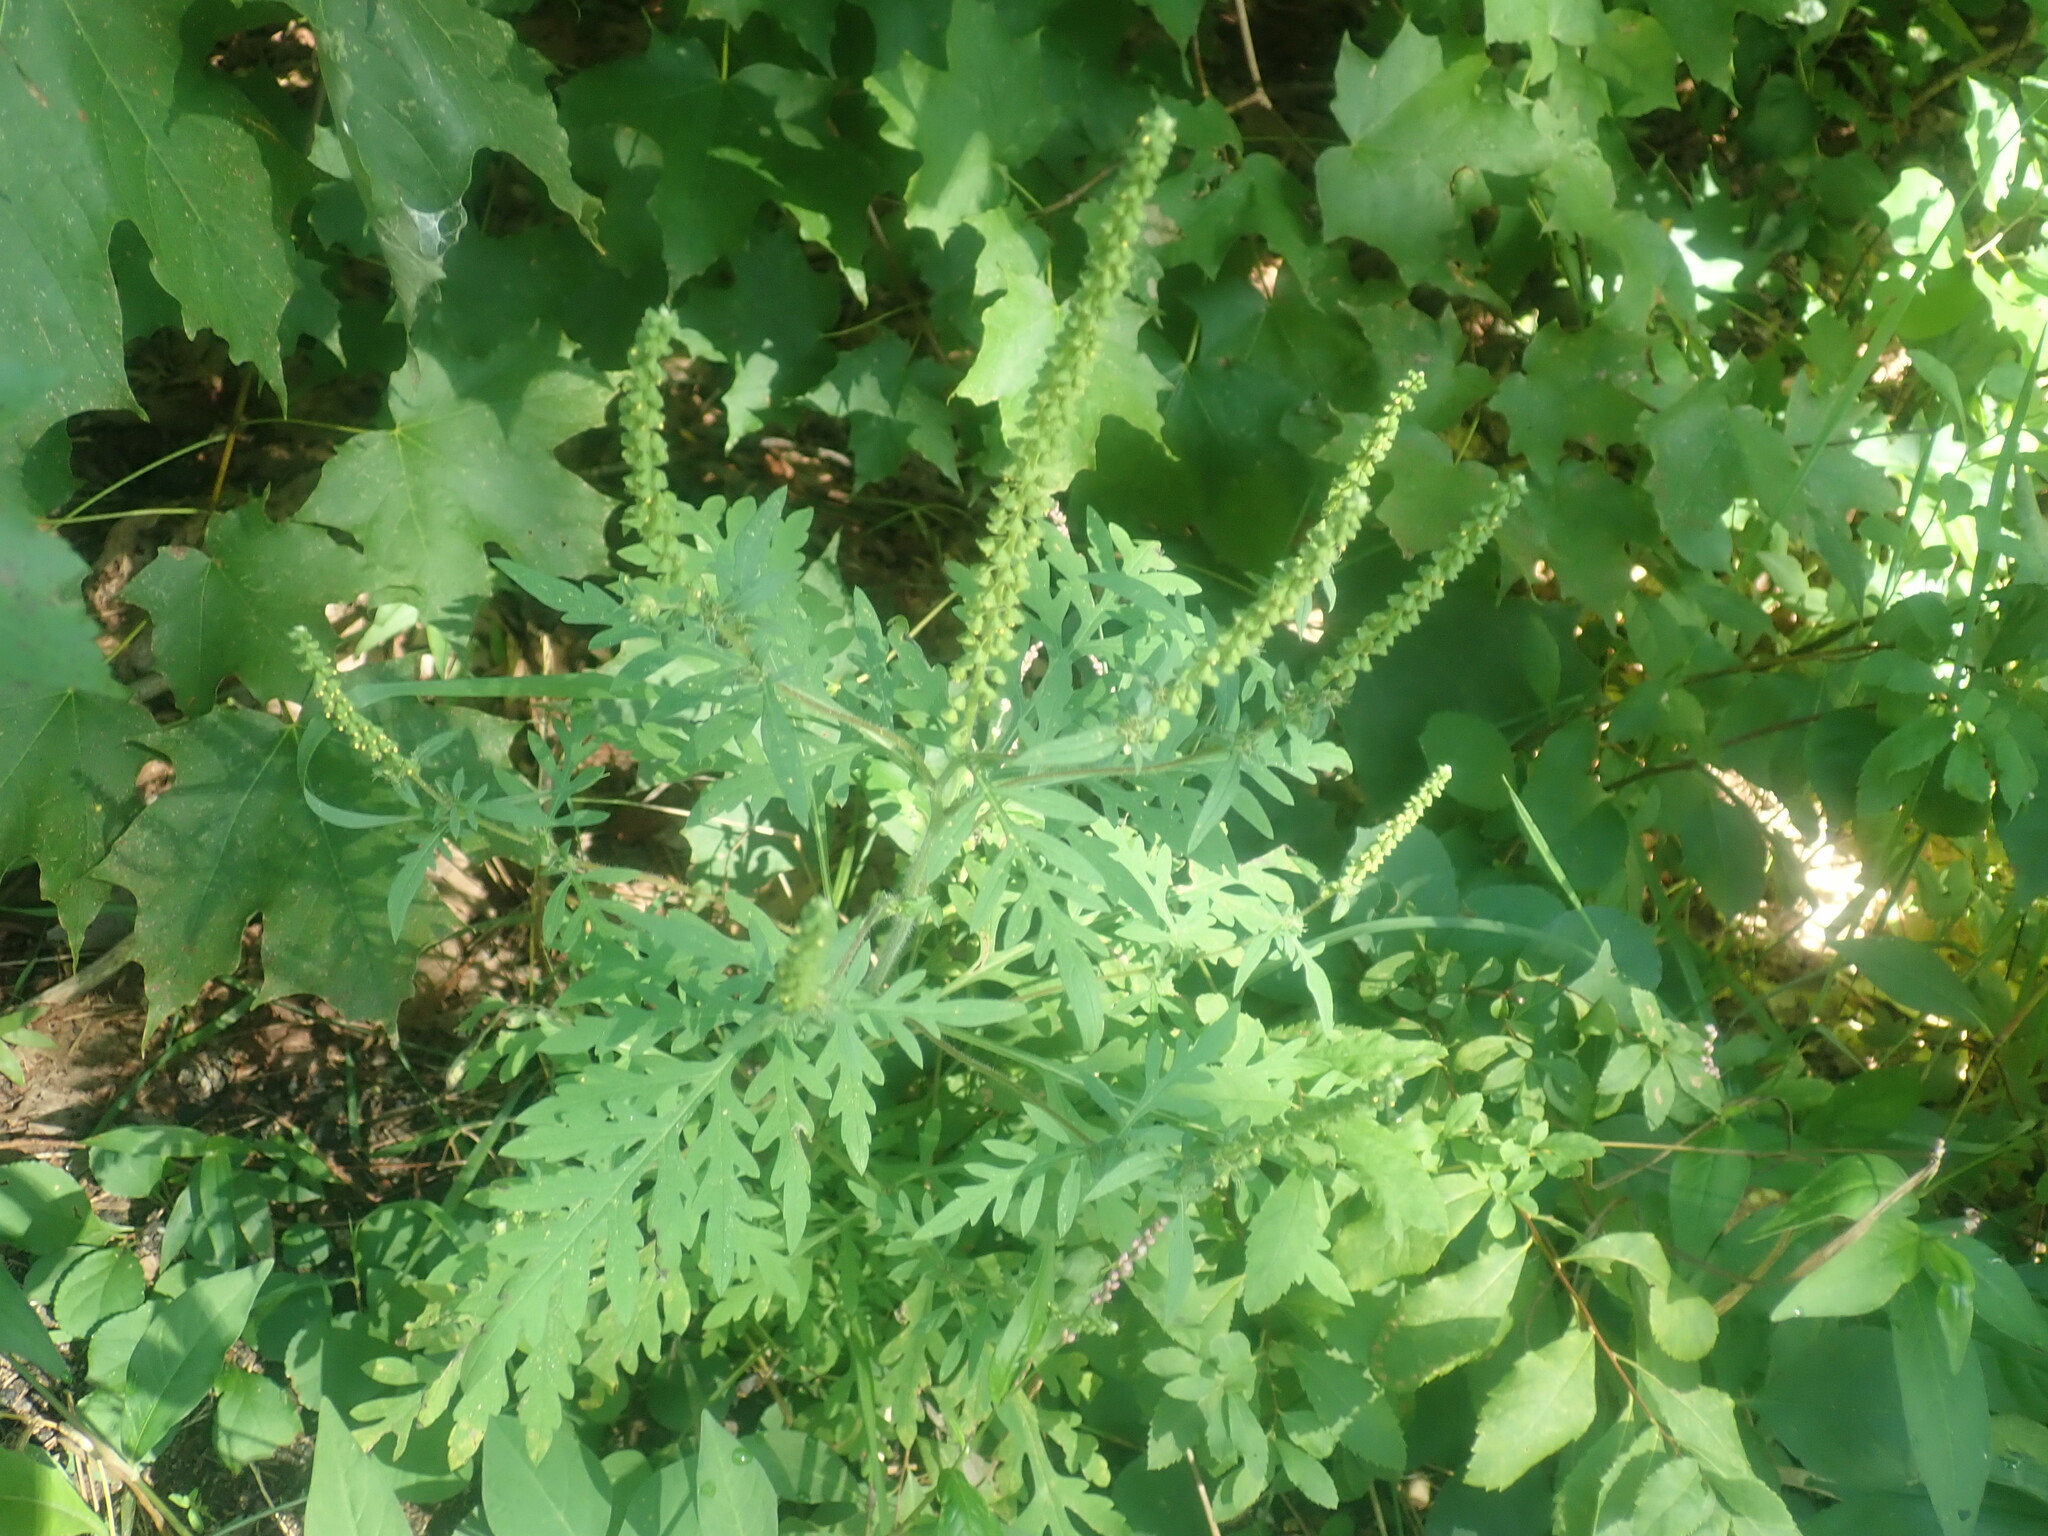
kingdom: Plantae
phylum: Tracheophyta
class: Magnoliopsida
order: Asterales
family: Asteraceae
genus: Ambrosia
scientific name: Ambrosia artemisiifolia
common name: Annual ragweed
